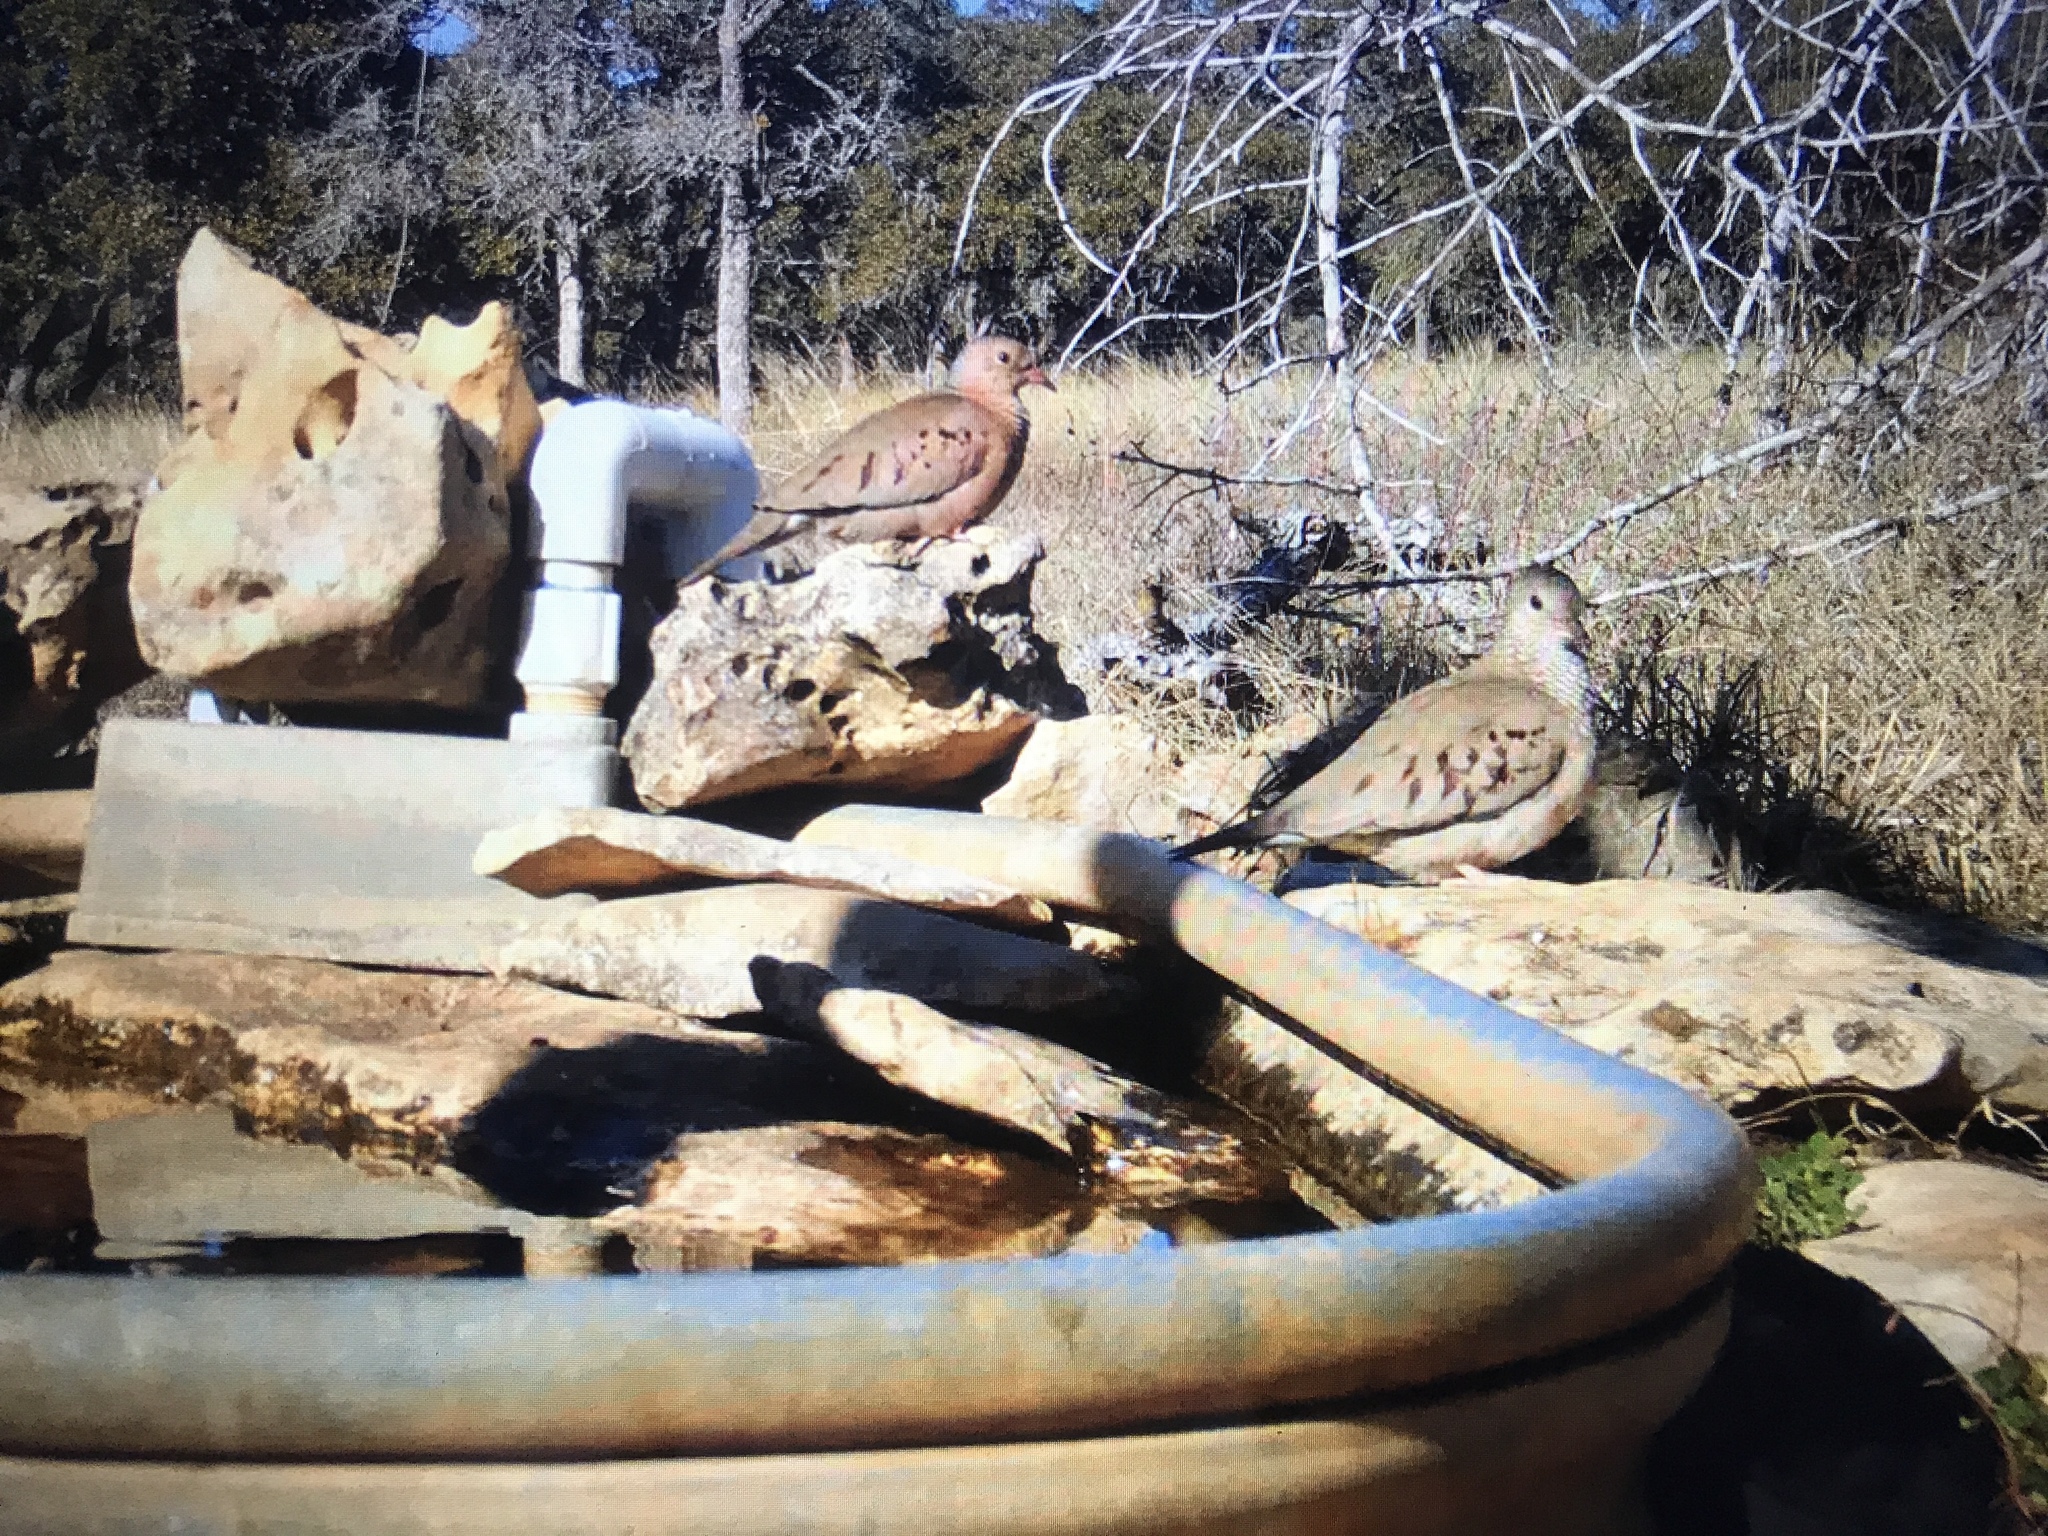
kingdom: Animalia
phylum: Chordata
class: Aves
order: Columbiformes
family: Columbidae
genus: Columbina
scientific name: Columbina passerina
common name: Common ground-dove
